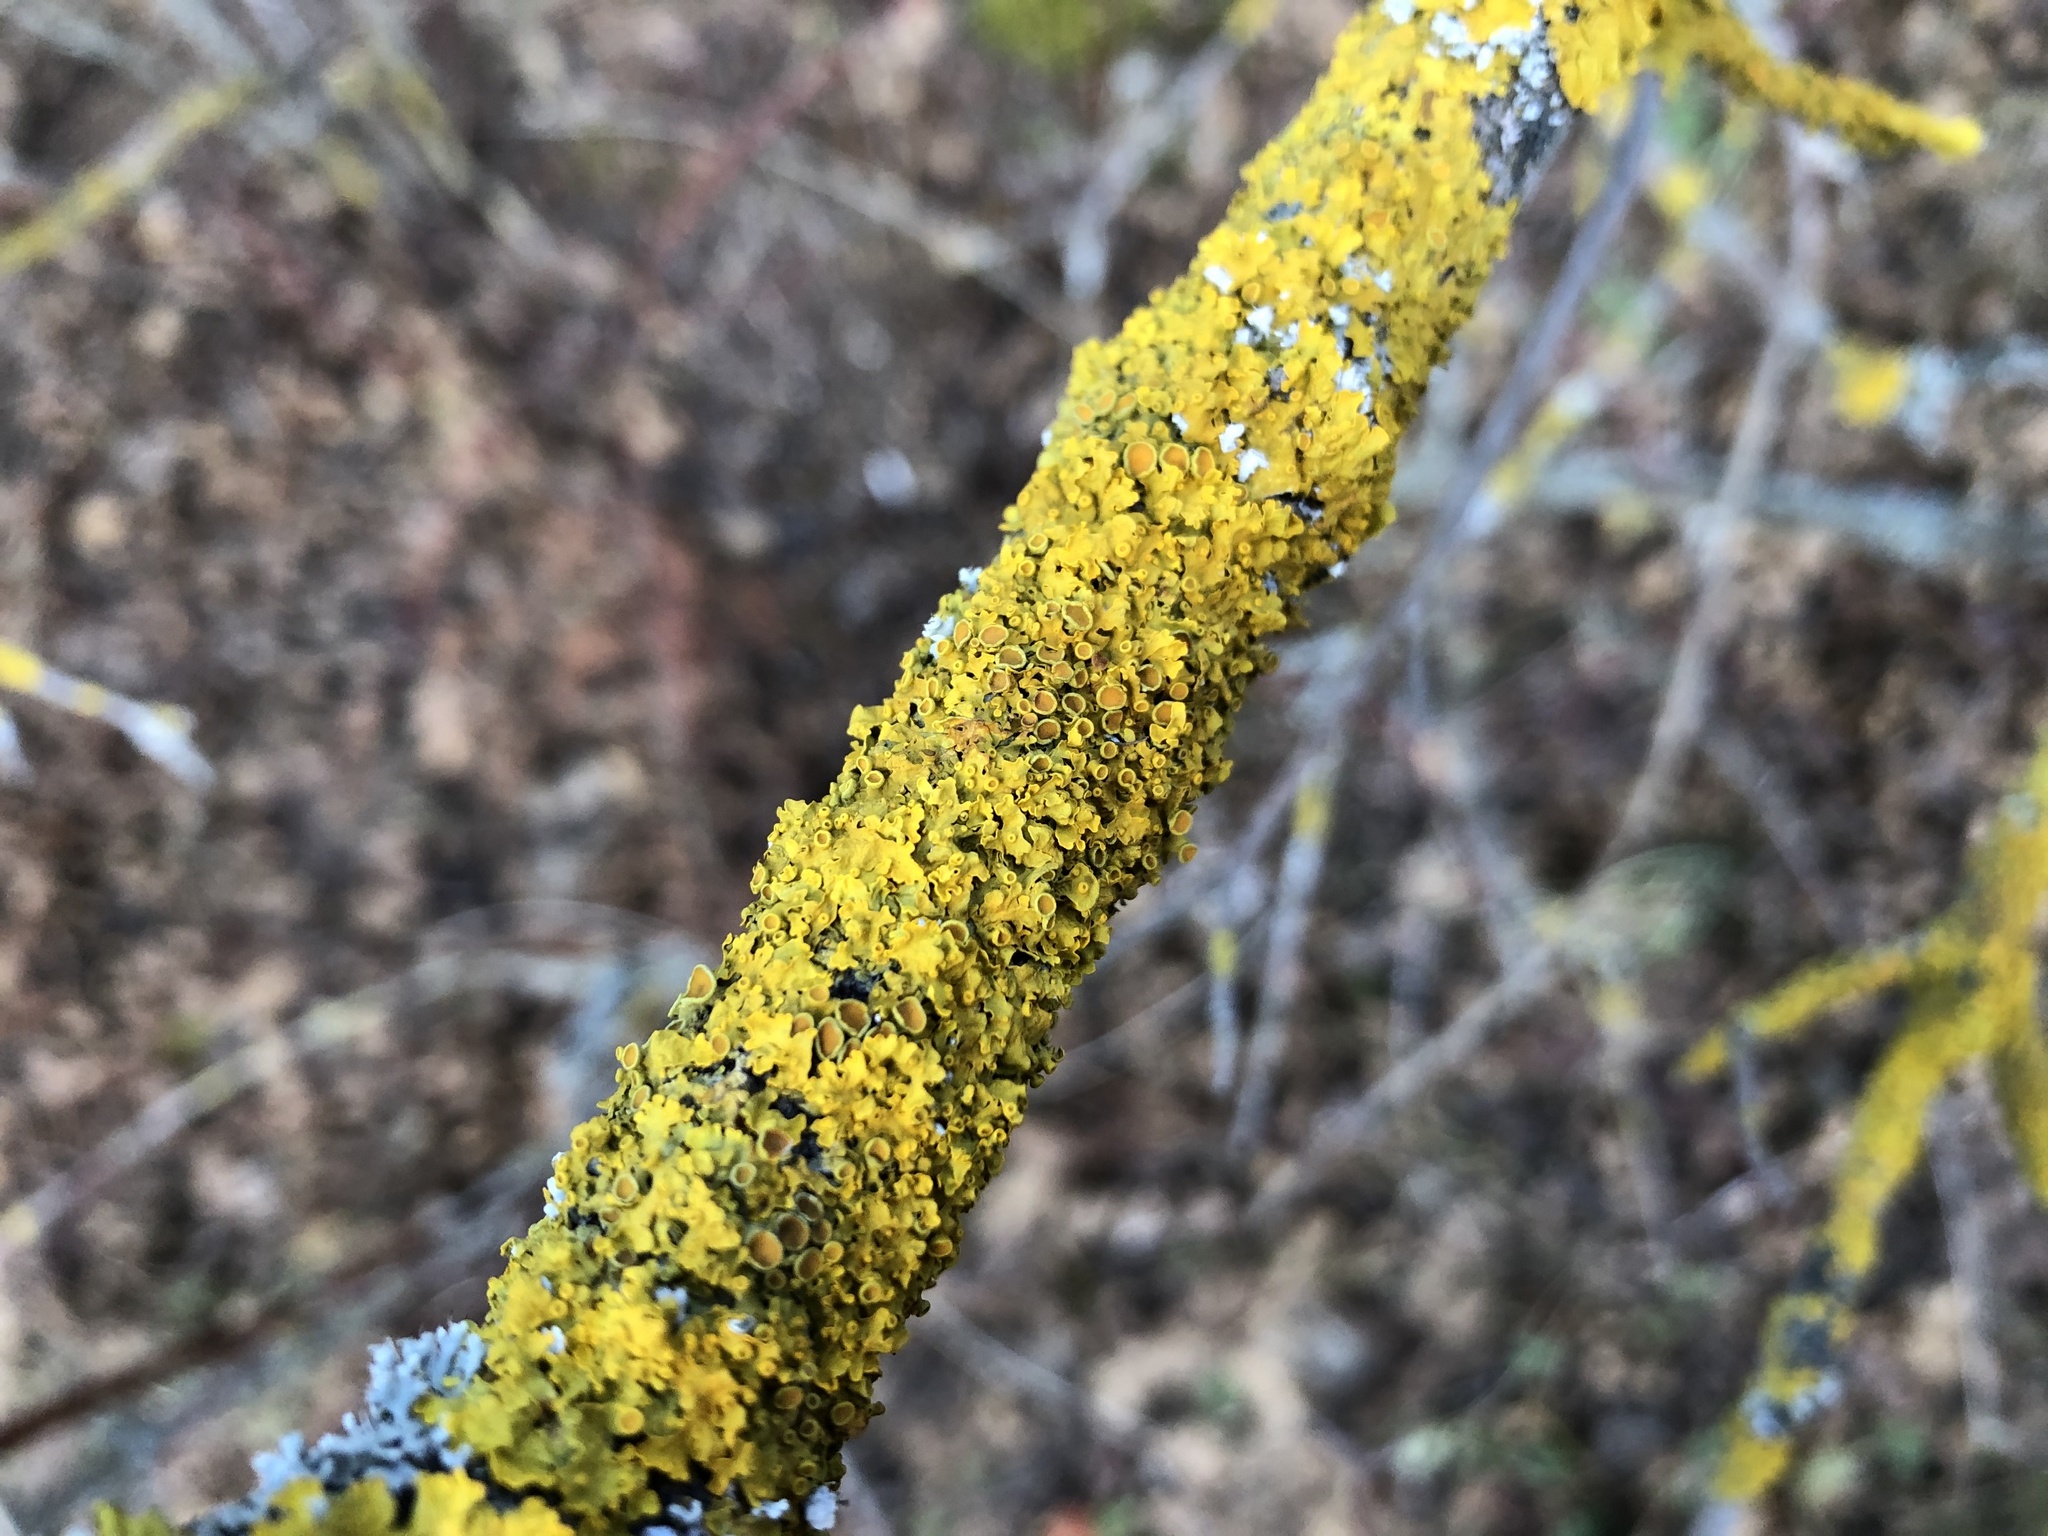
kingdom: Fungi
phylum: Ascomycota
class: Lecanoromycetes
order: Teloschistales
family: Teloschistaceae
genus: Xanthoria
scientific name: Xanthoria parietina
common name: Common orange lichen
